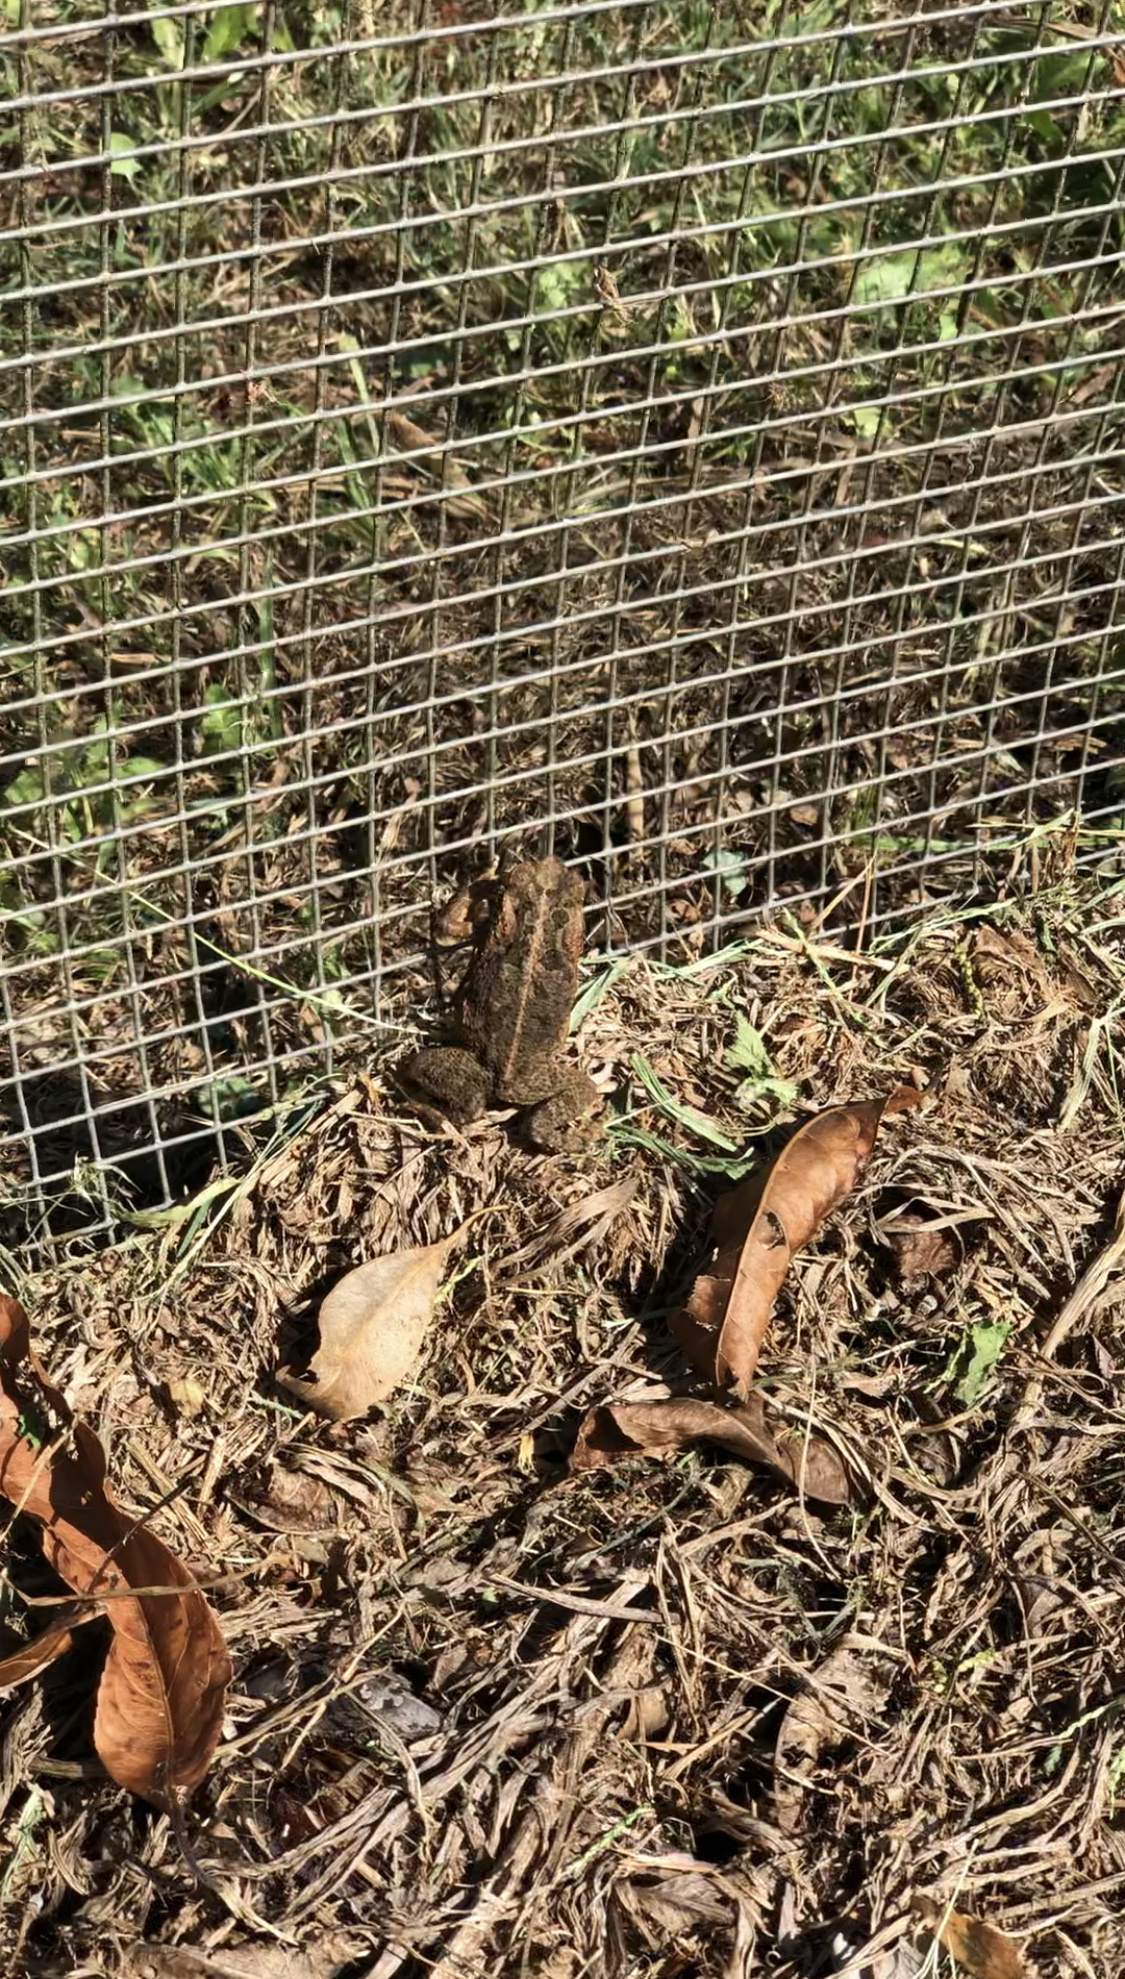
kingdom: Animalia
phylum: Chordata
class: Amphibia
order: Anura
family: Bufonidae
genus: Rhinella
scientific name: Rhinella marina
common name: Cane toad
